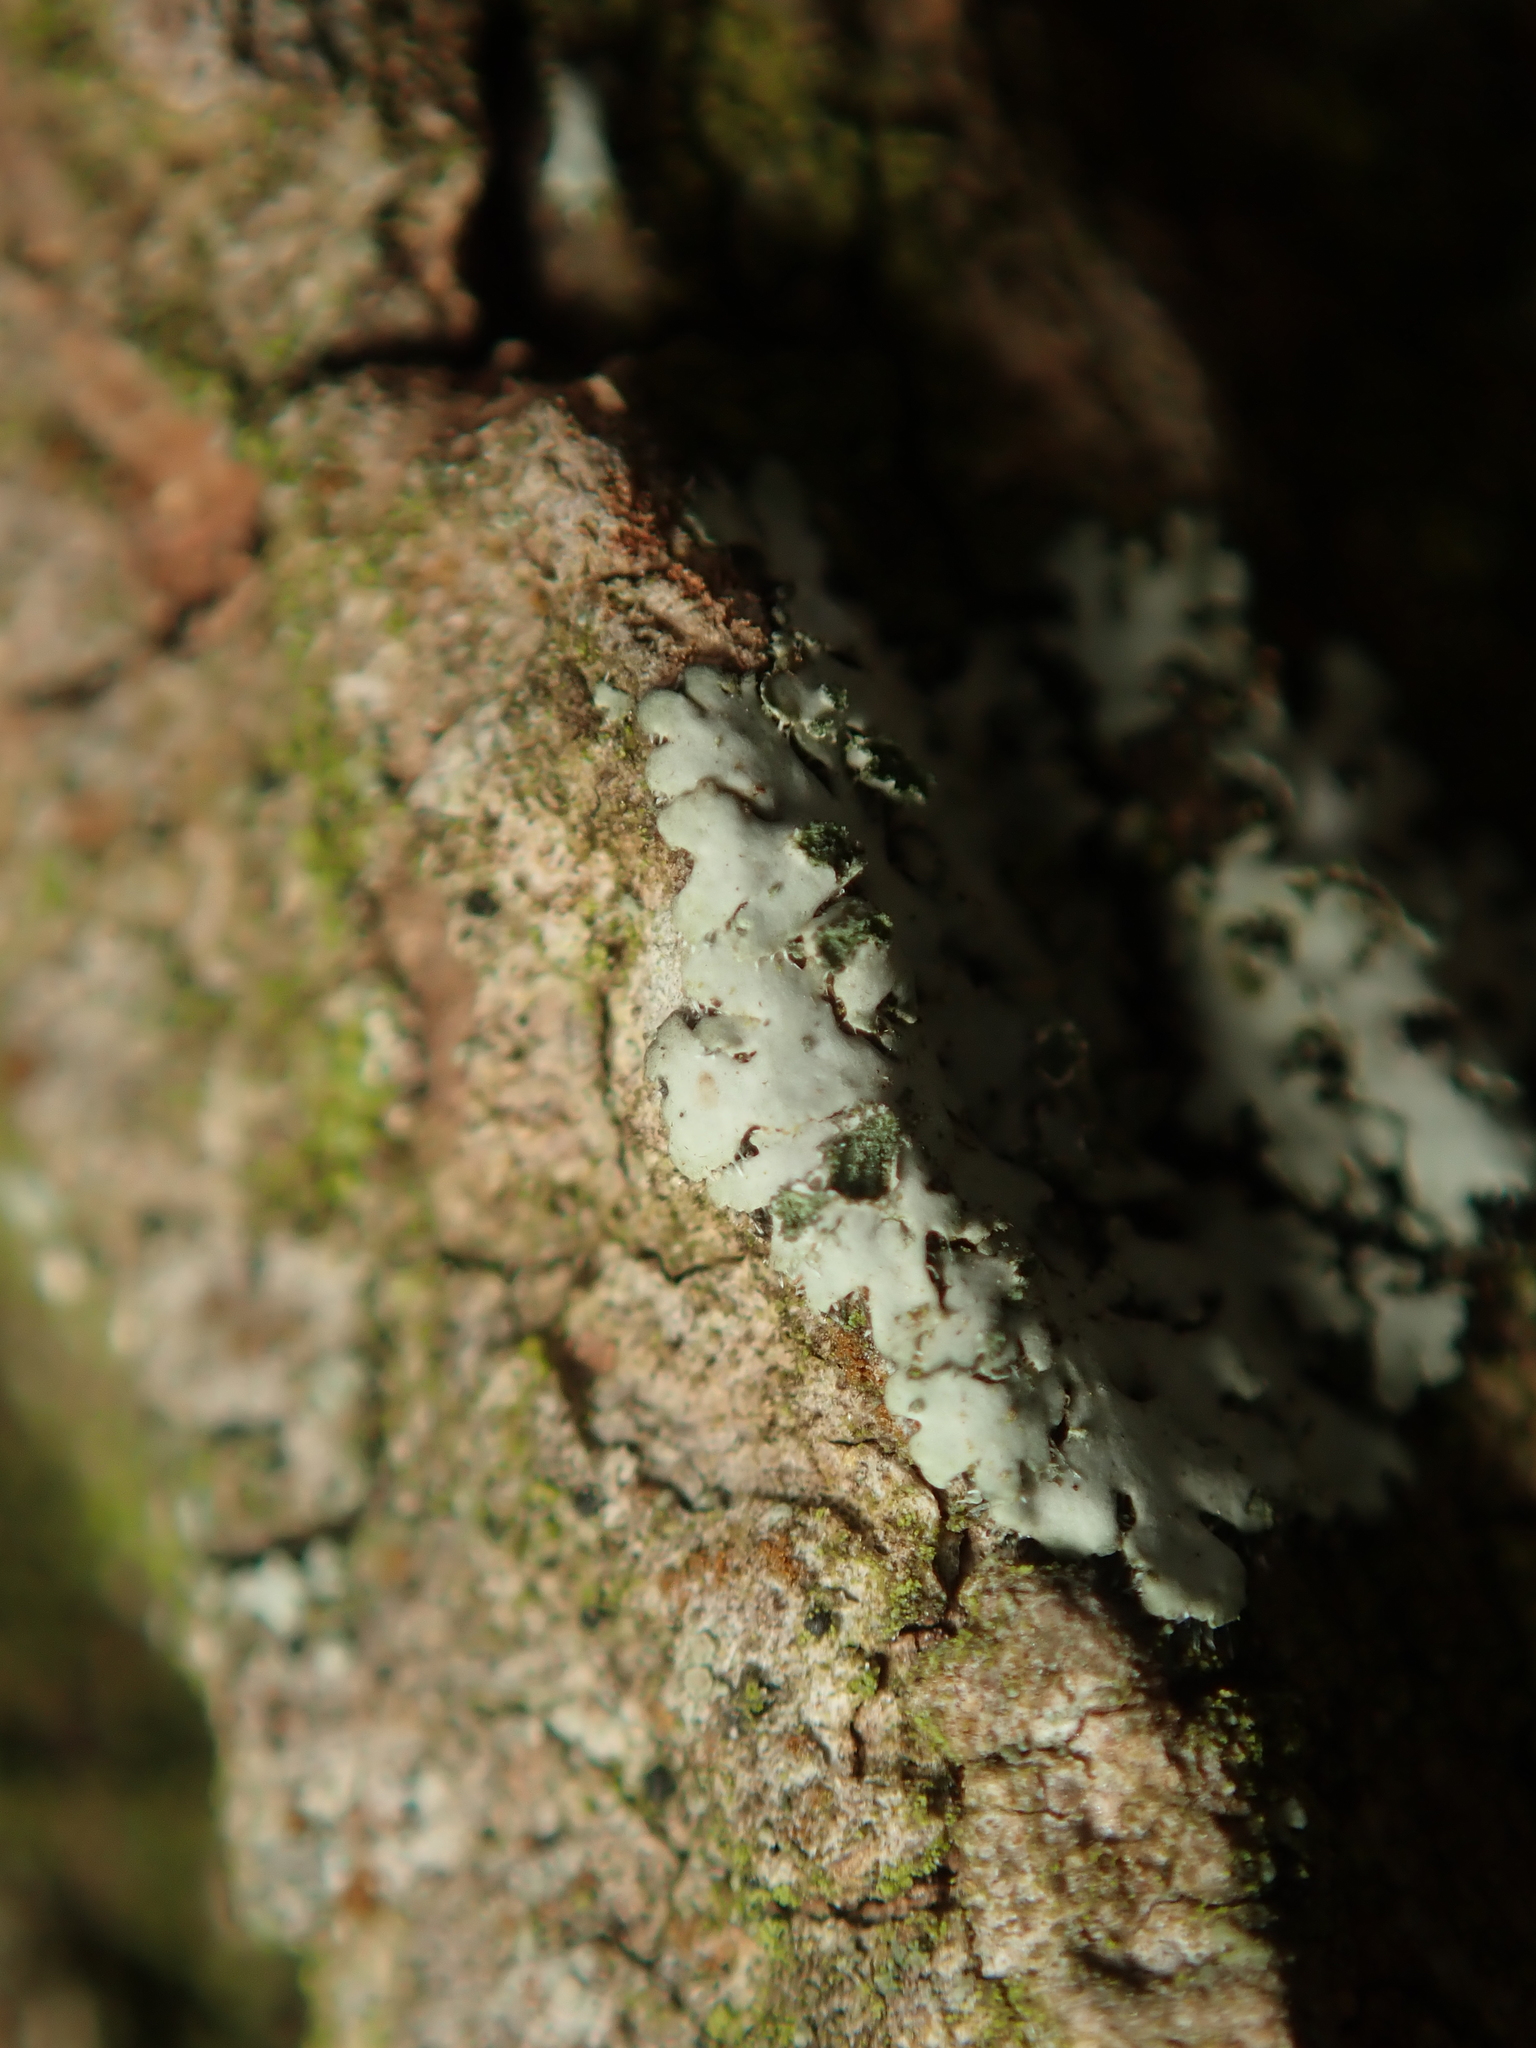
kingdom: Fungi
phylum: Ascomycota
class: Lecanoromycetes
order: Caliciales
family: Physciaceae
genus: Phaeophyscia
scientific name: Phaeophyscia orbicularis
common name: Mealy shadow lichen
